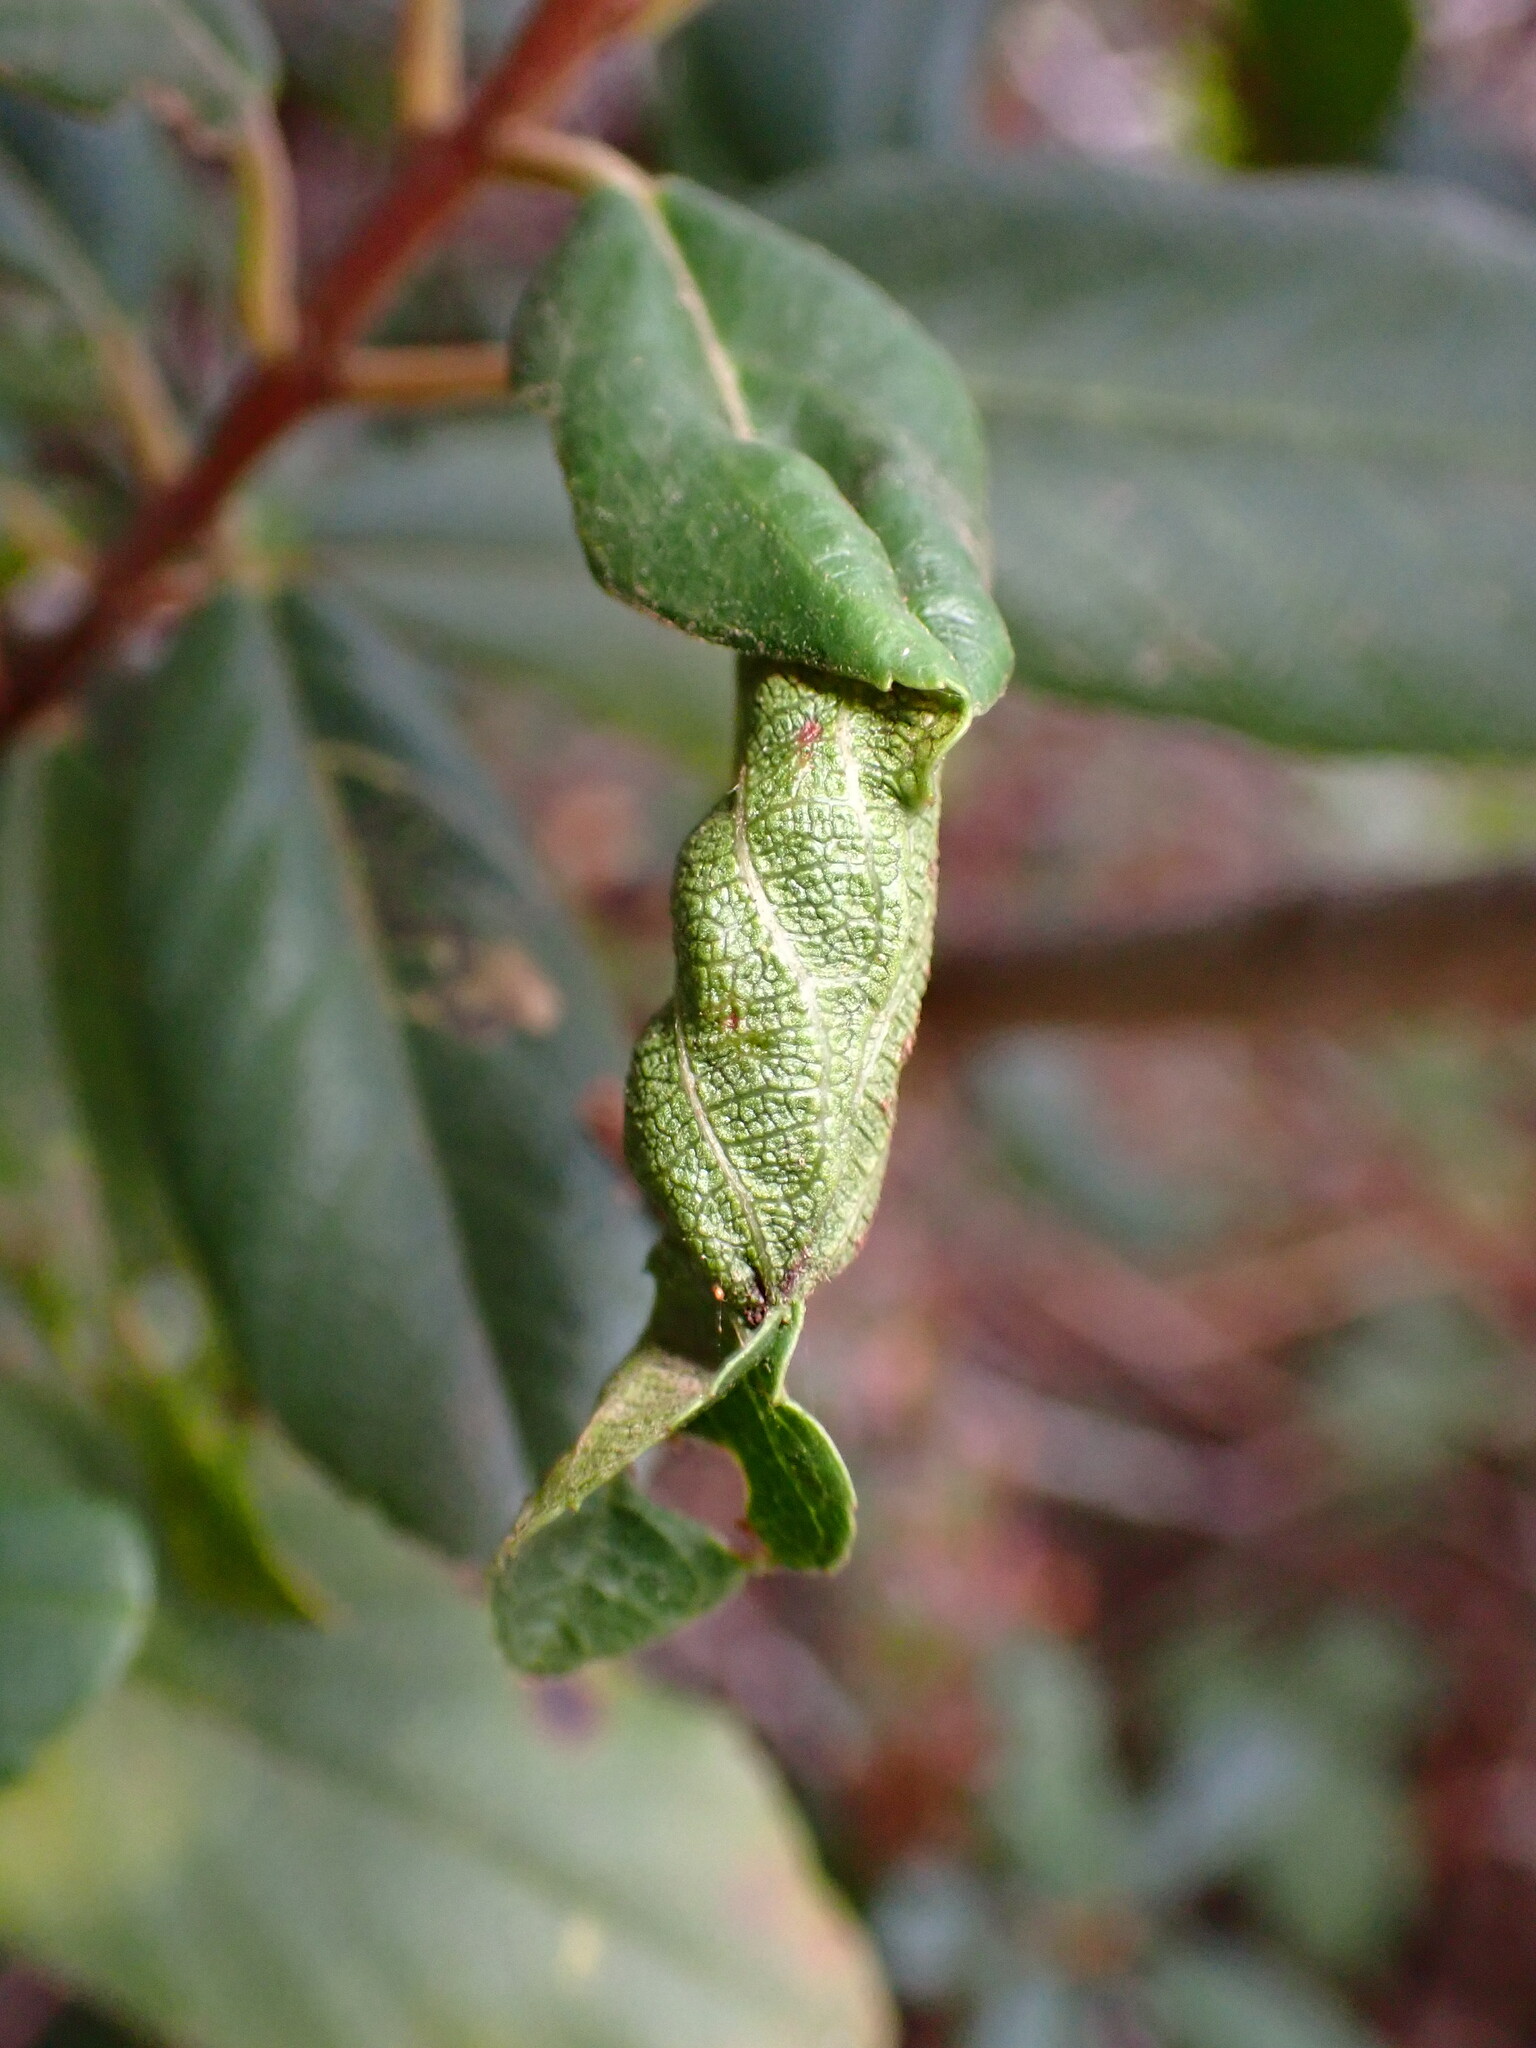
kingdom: Animalia
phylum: Arthropoda
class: Insecta
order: Lepidoptera
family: Cosmopterigidae
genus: Sorhagenia
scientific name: Sorhagenia nimbosus
